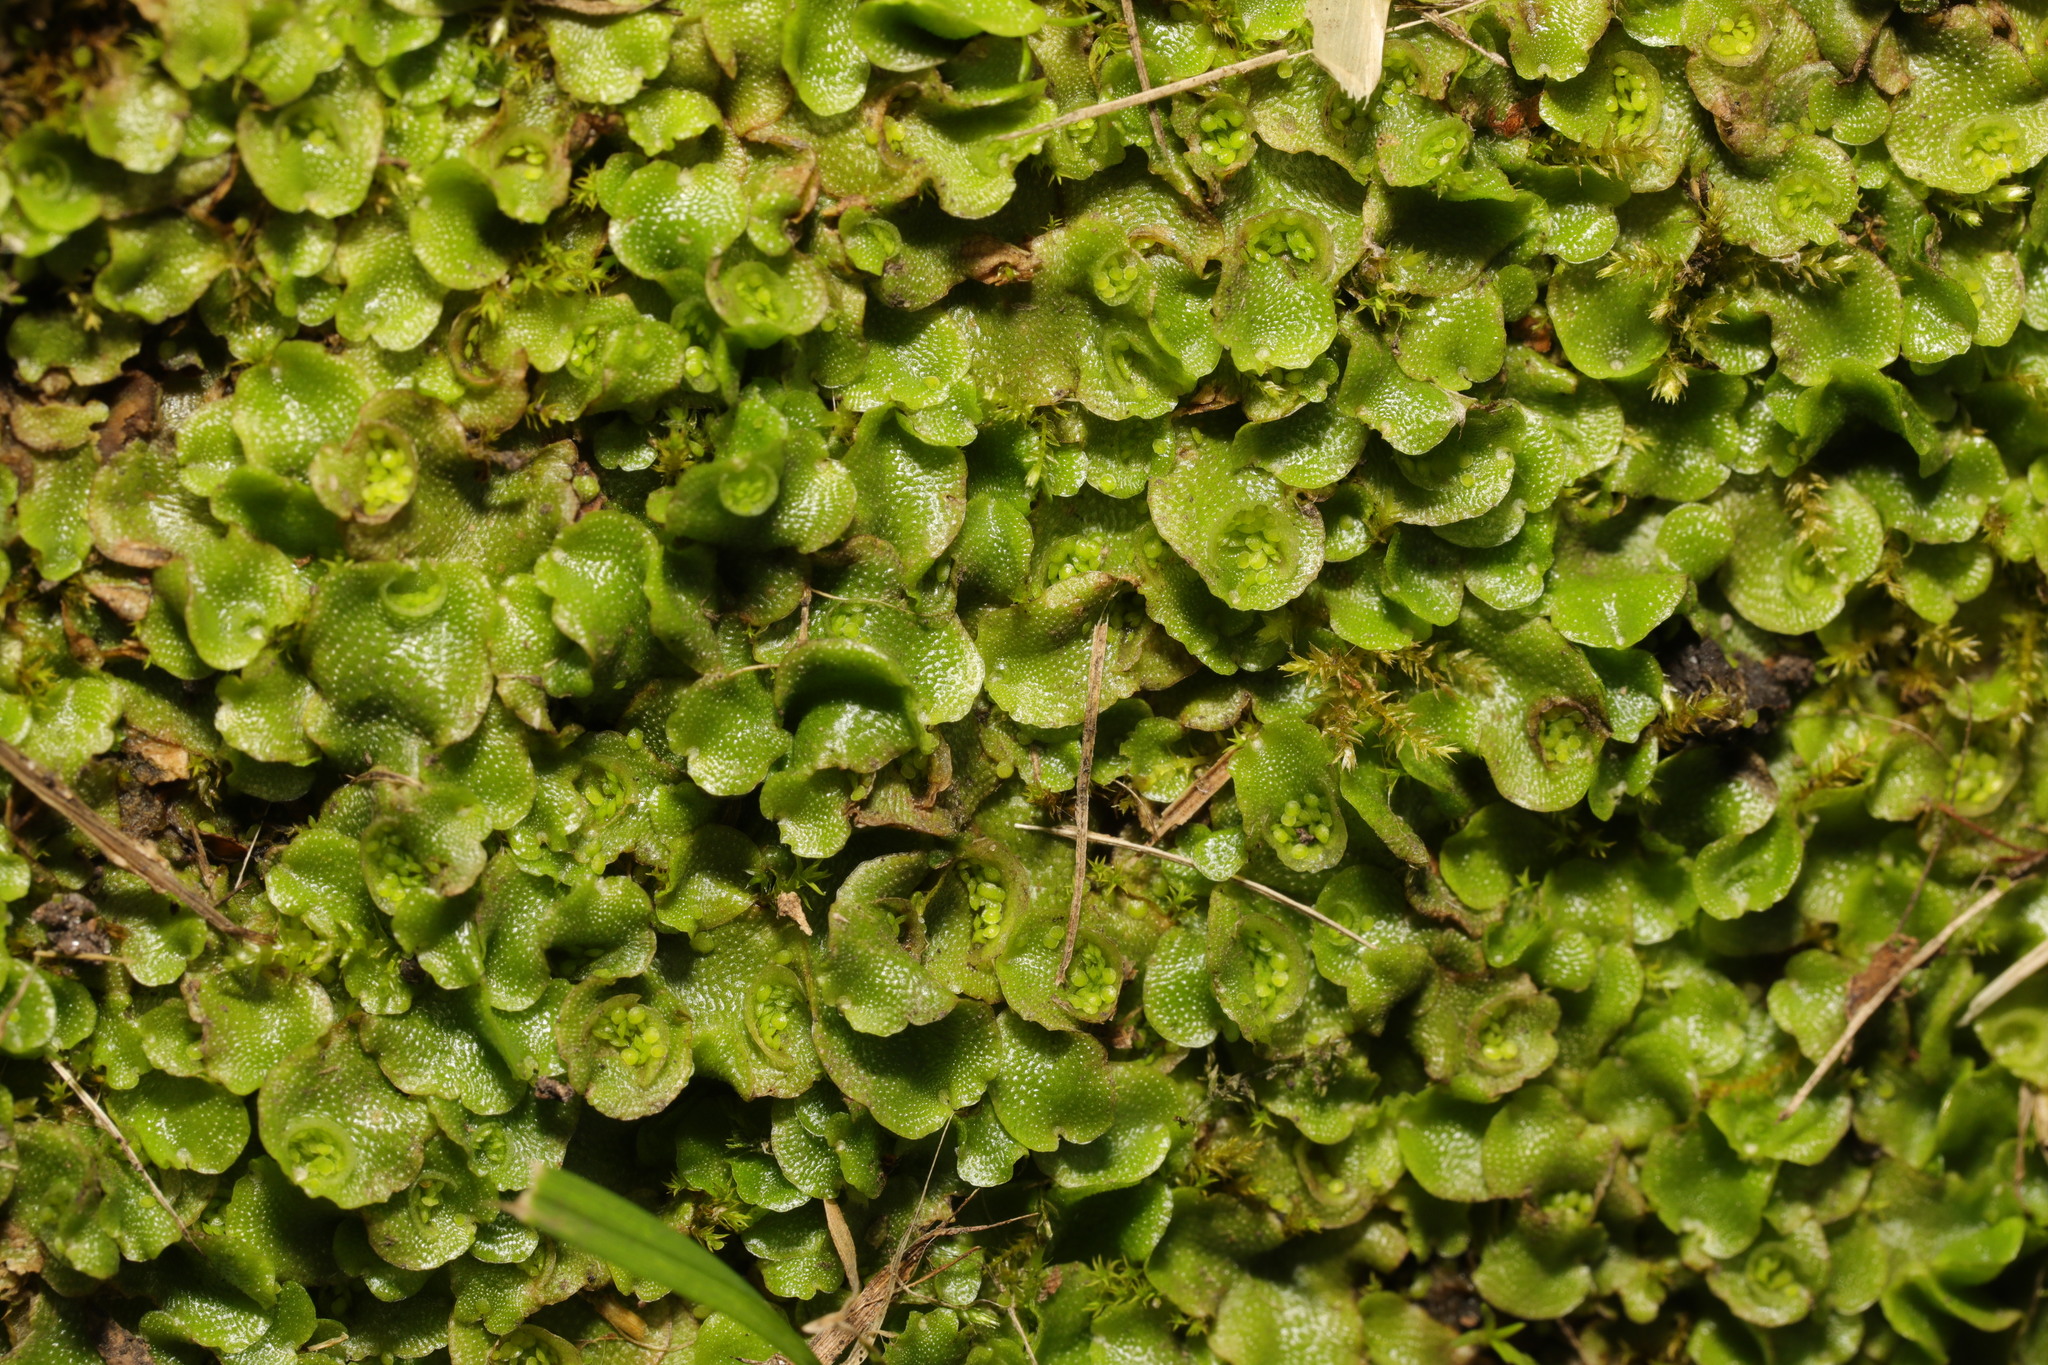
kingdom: Plantae
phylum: Marchantiophyta
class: Marchantiopsida
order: Lunulariales
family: Lunulariaceae
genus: Lunularia
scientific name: Lunularia cruciata
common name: Crescent-cup liverwort
